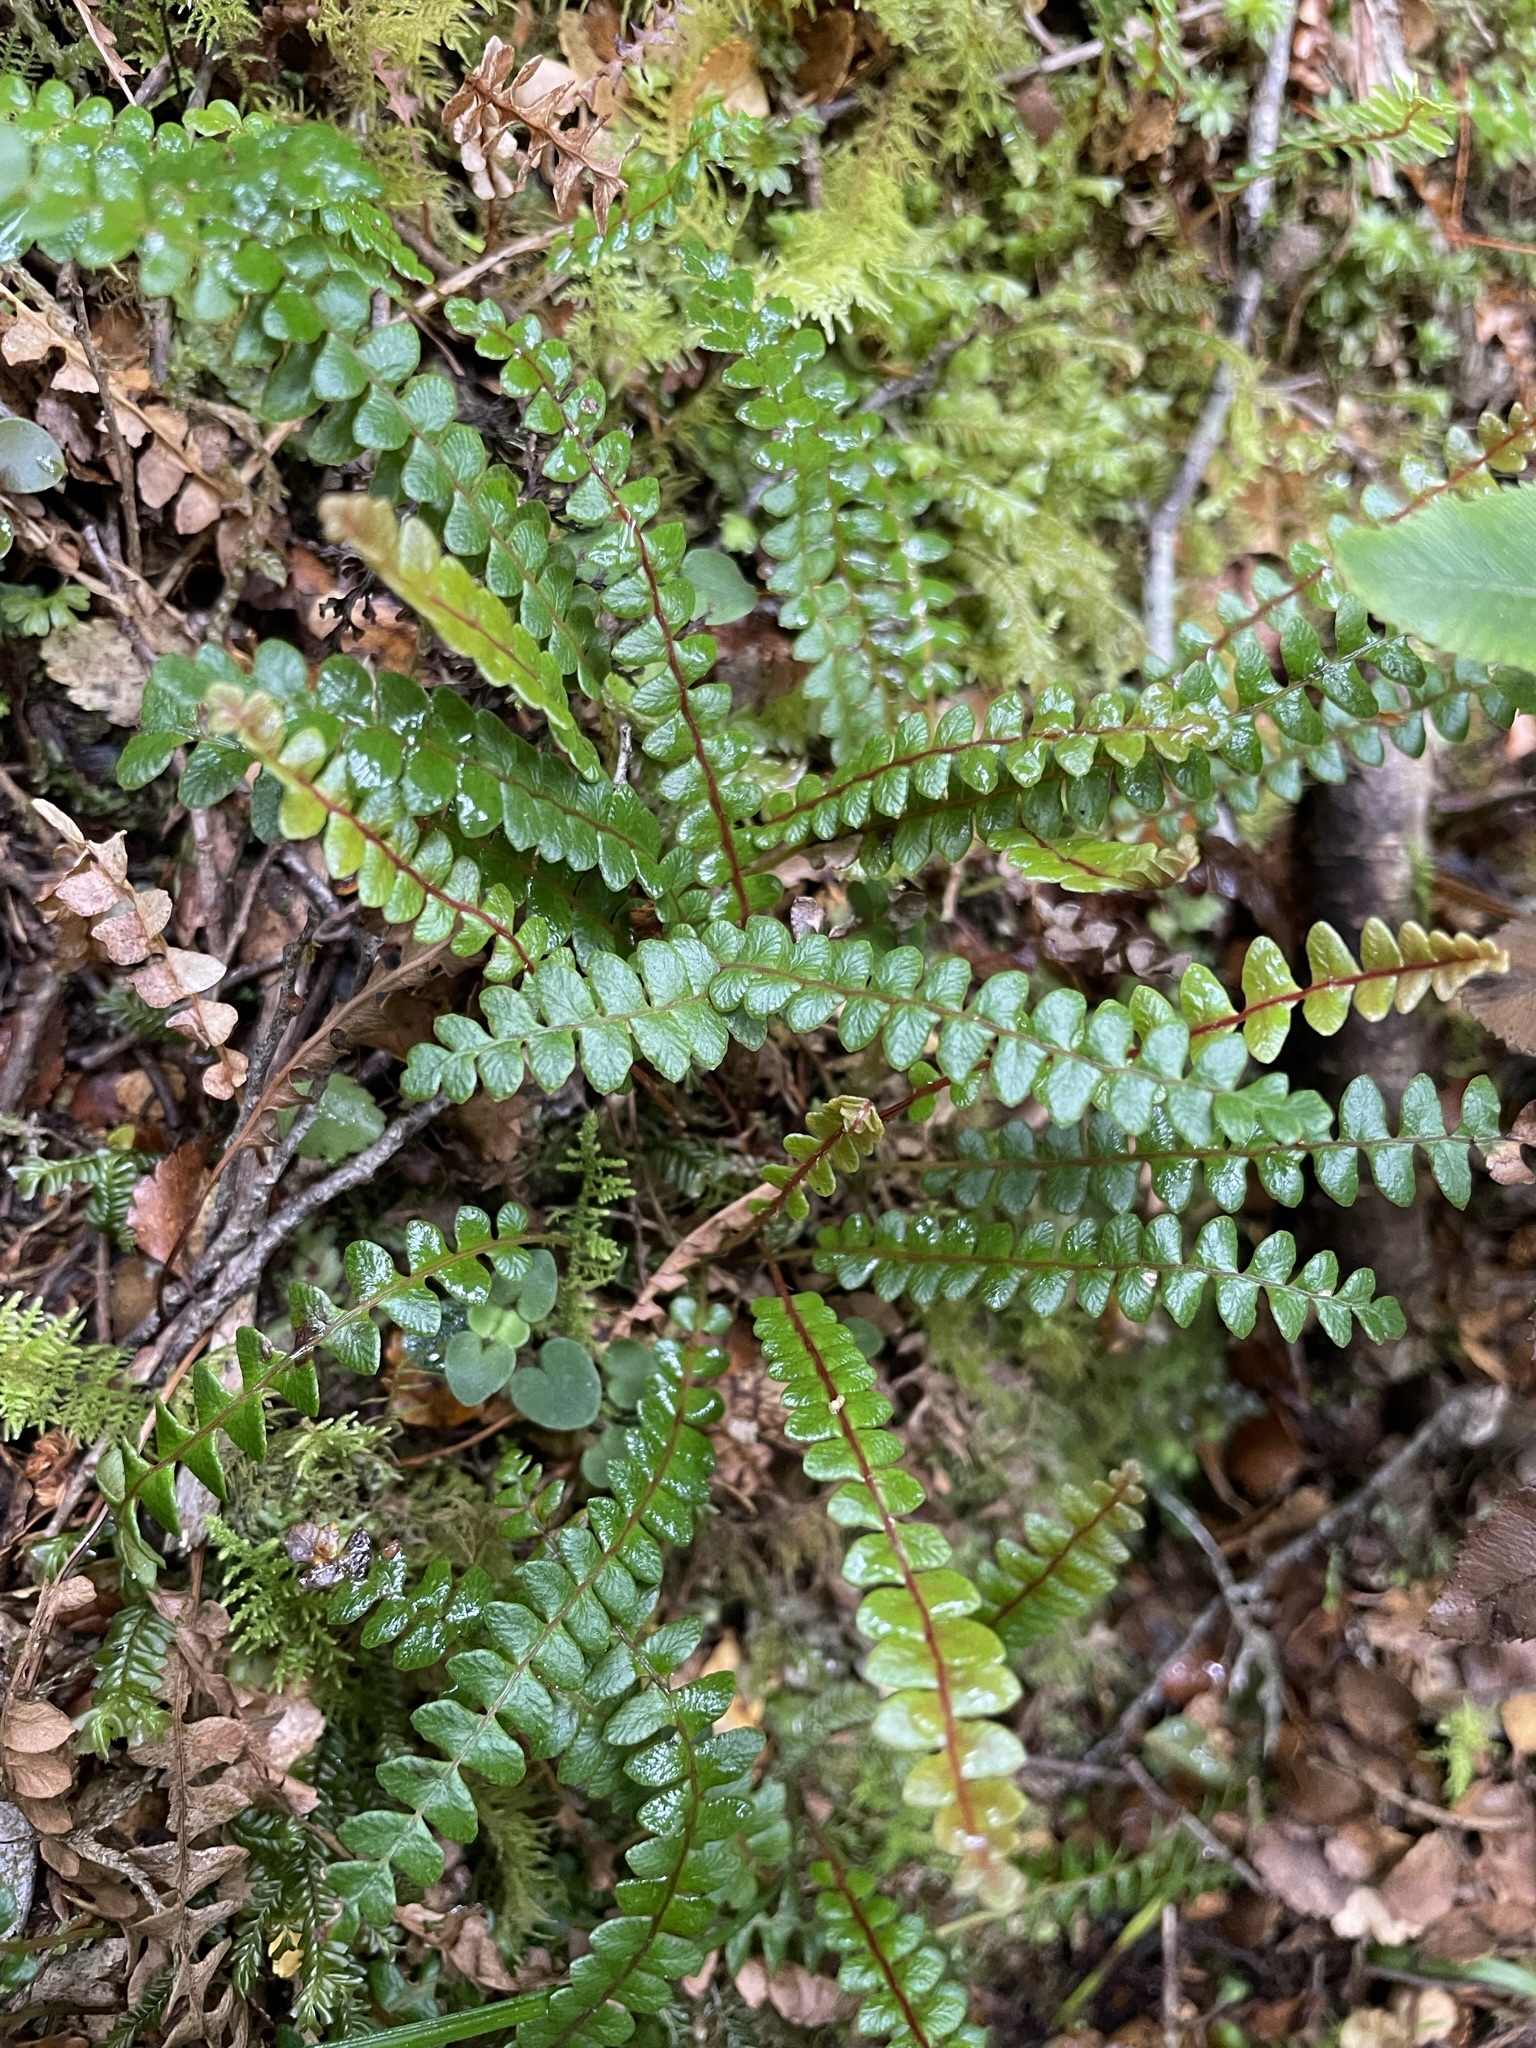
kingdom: Plantae
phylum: Tracheophyta
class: Polypodiopsida
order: Polypodiales
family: Blechnaceae
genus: Austroblechnum
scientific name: Austroblechnum penna-marina
